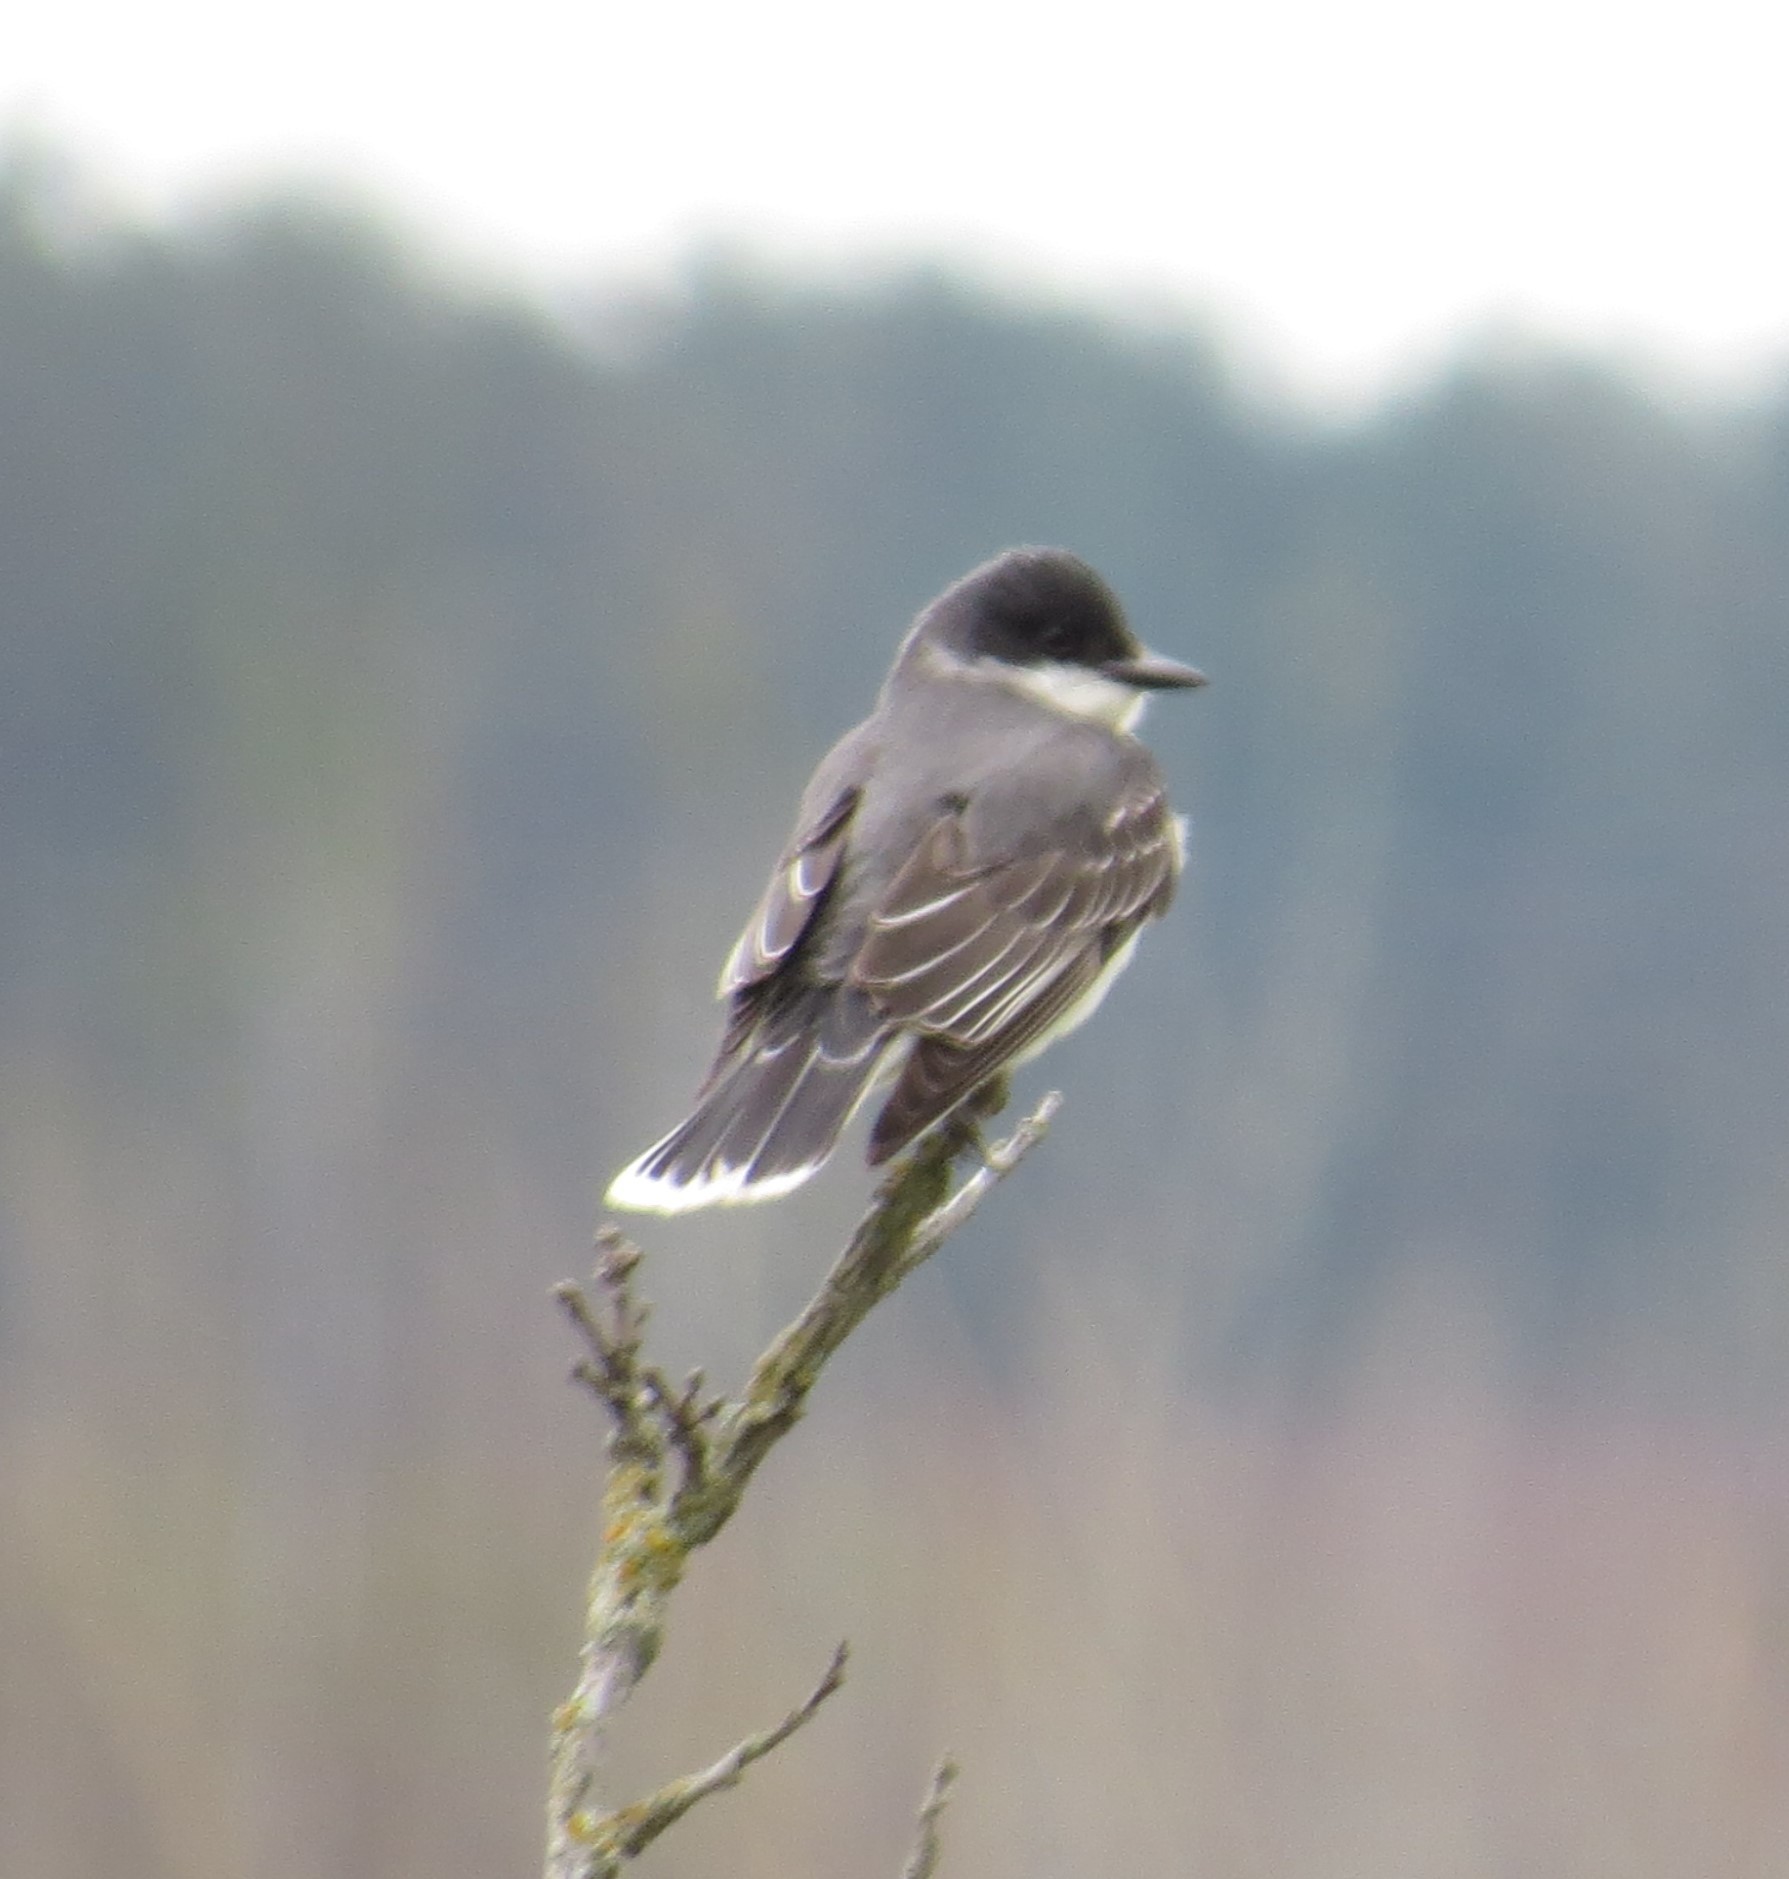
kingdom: Animalia
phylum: Chordata
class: Aves
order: Passeriformes
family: Tyrannidae
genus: Tyrannus
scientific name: Tyrannus tyrannus
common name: Eastern kingbird
